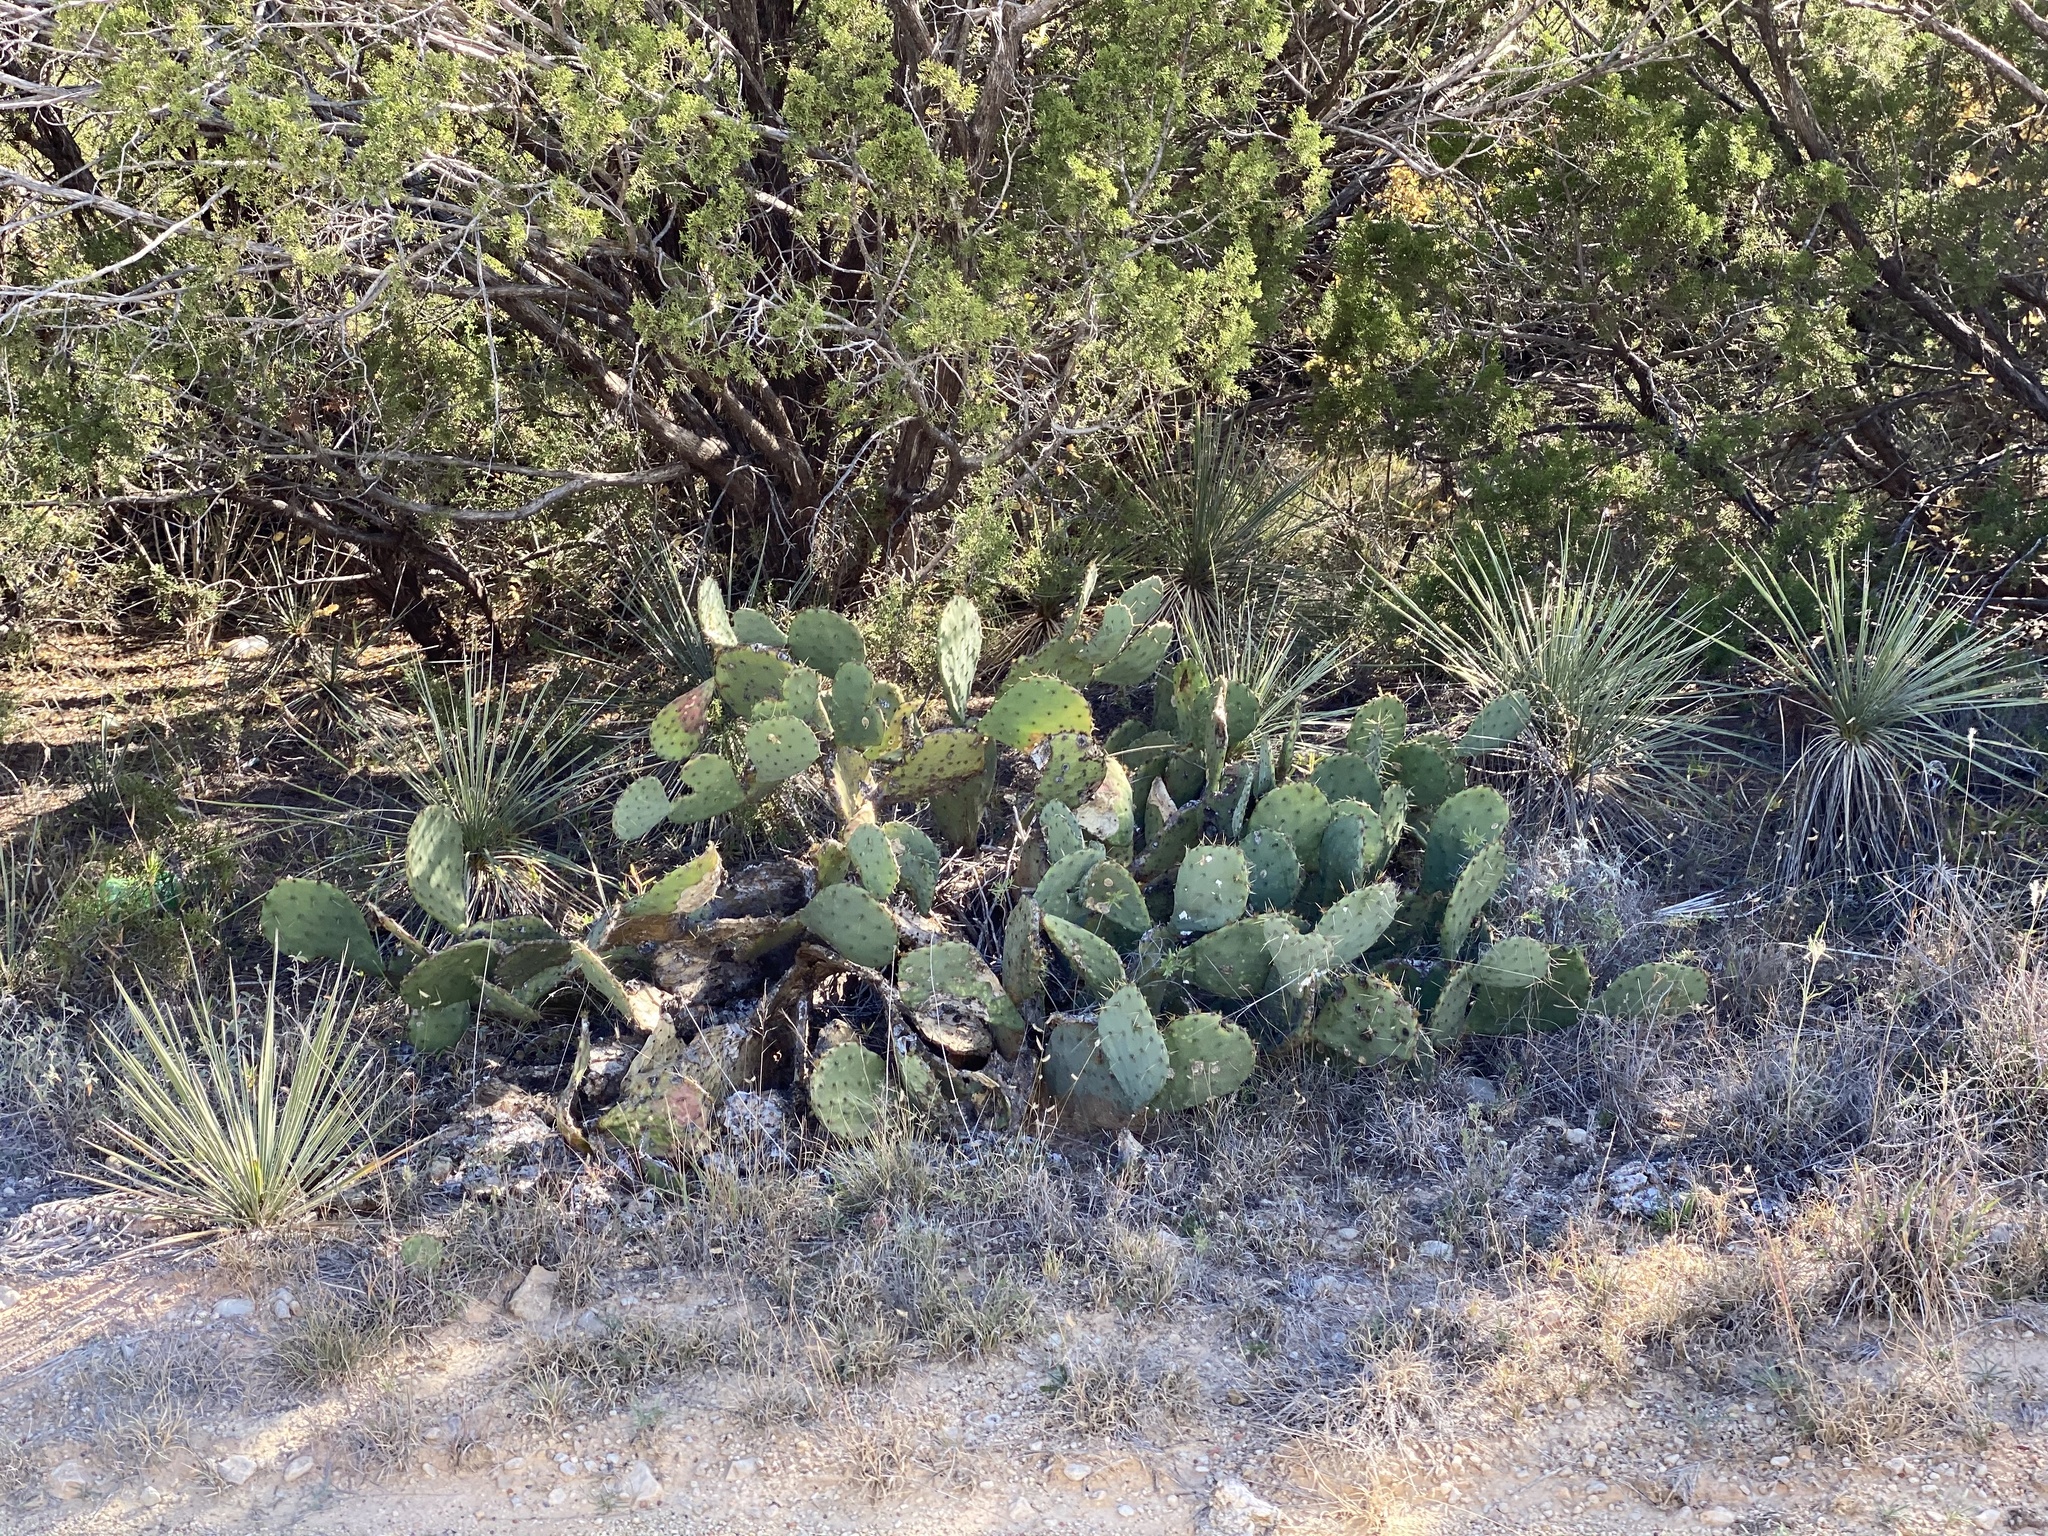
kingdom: Plantae
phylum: Tracheophyta
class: Magnoliopsida
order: Caryophyllales
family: Cactaceae
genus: Opuntia
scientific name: Opuntia engelmannii
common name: Cactus-apple
